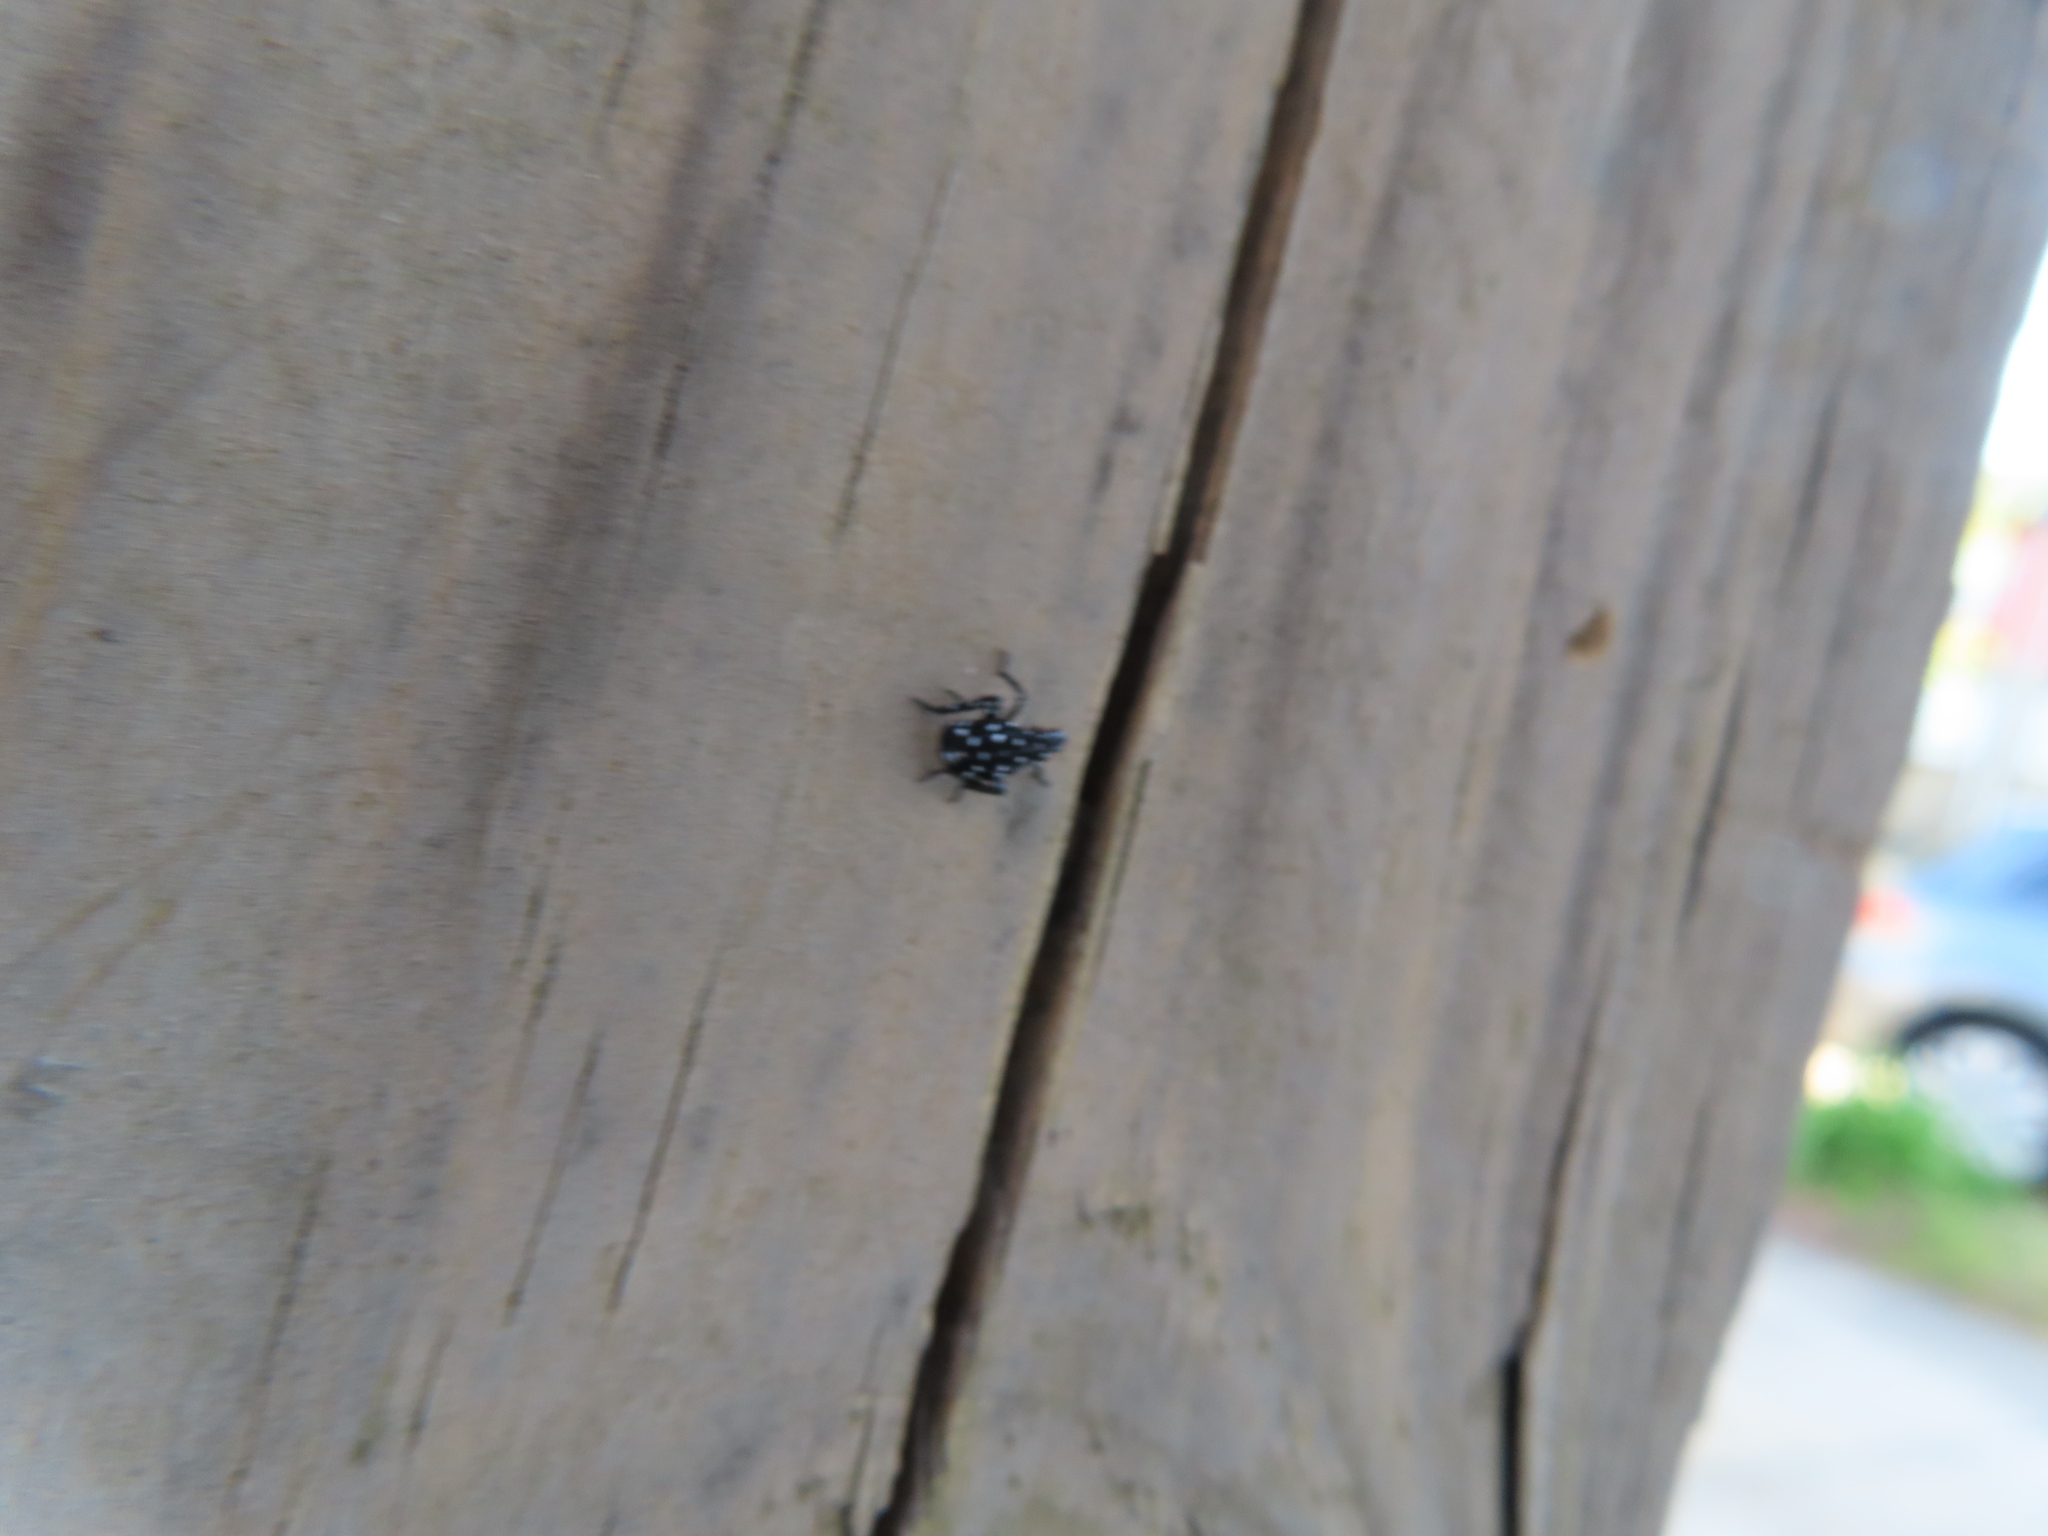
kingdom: Animalia
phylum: Arthropoda
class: Insecta
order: Hemiptera
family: Fulgoridae
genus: Lycorma
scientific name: Lycorma delicatula
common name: Spotted lanternfly
